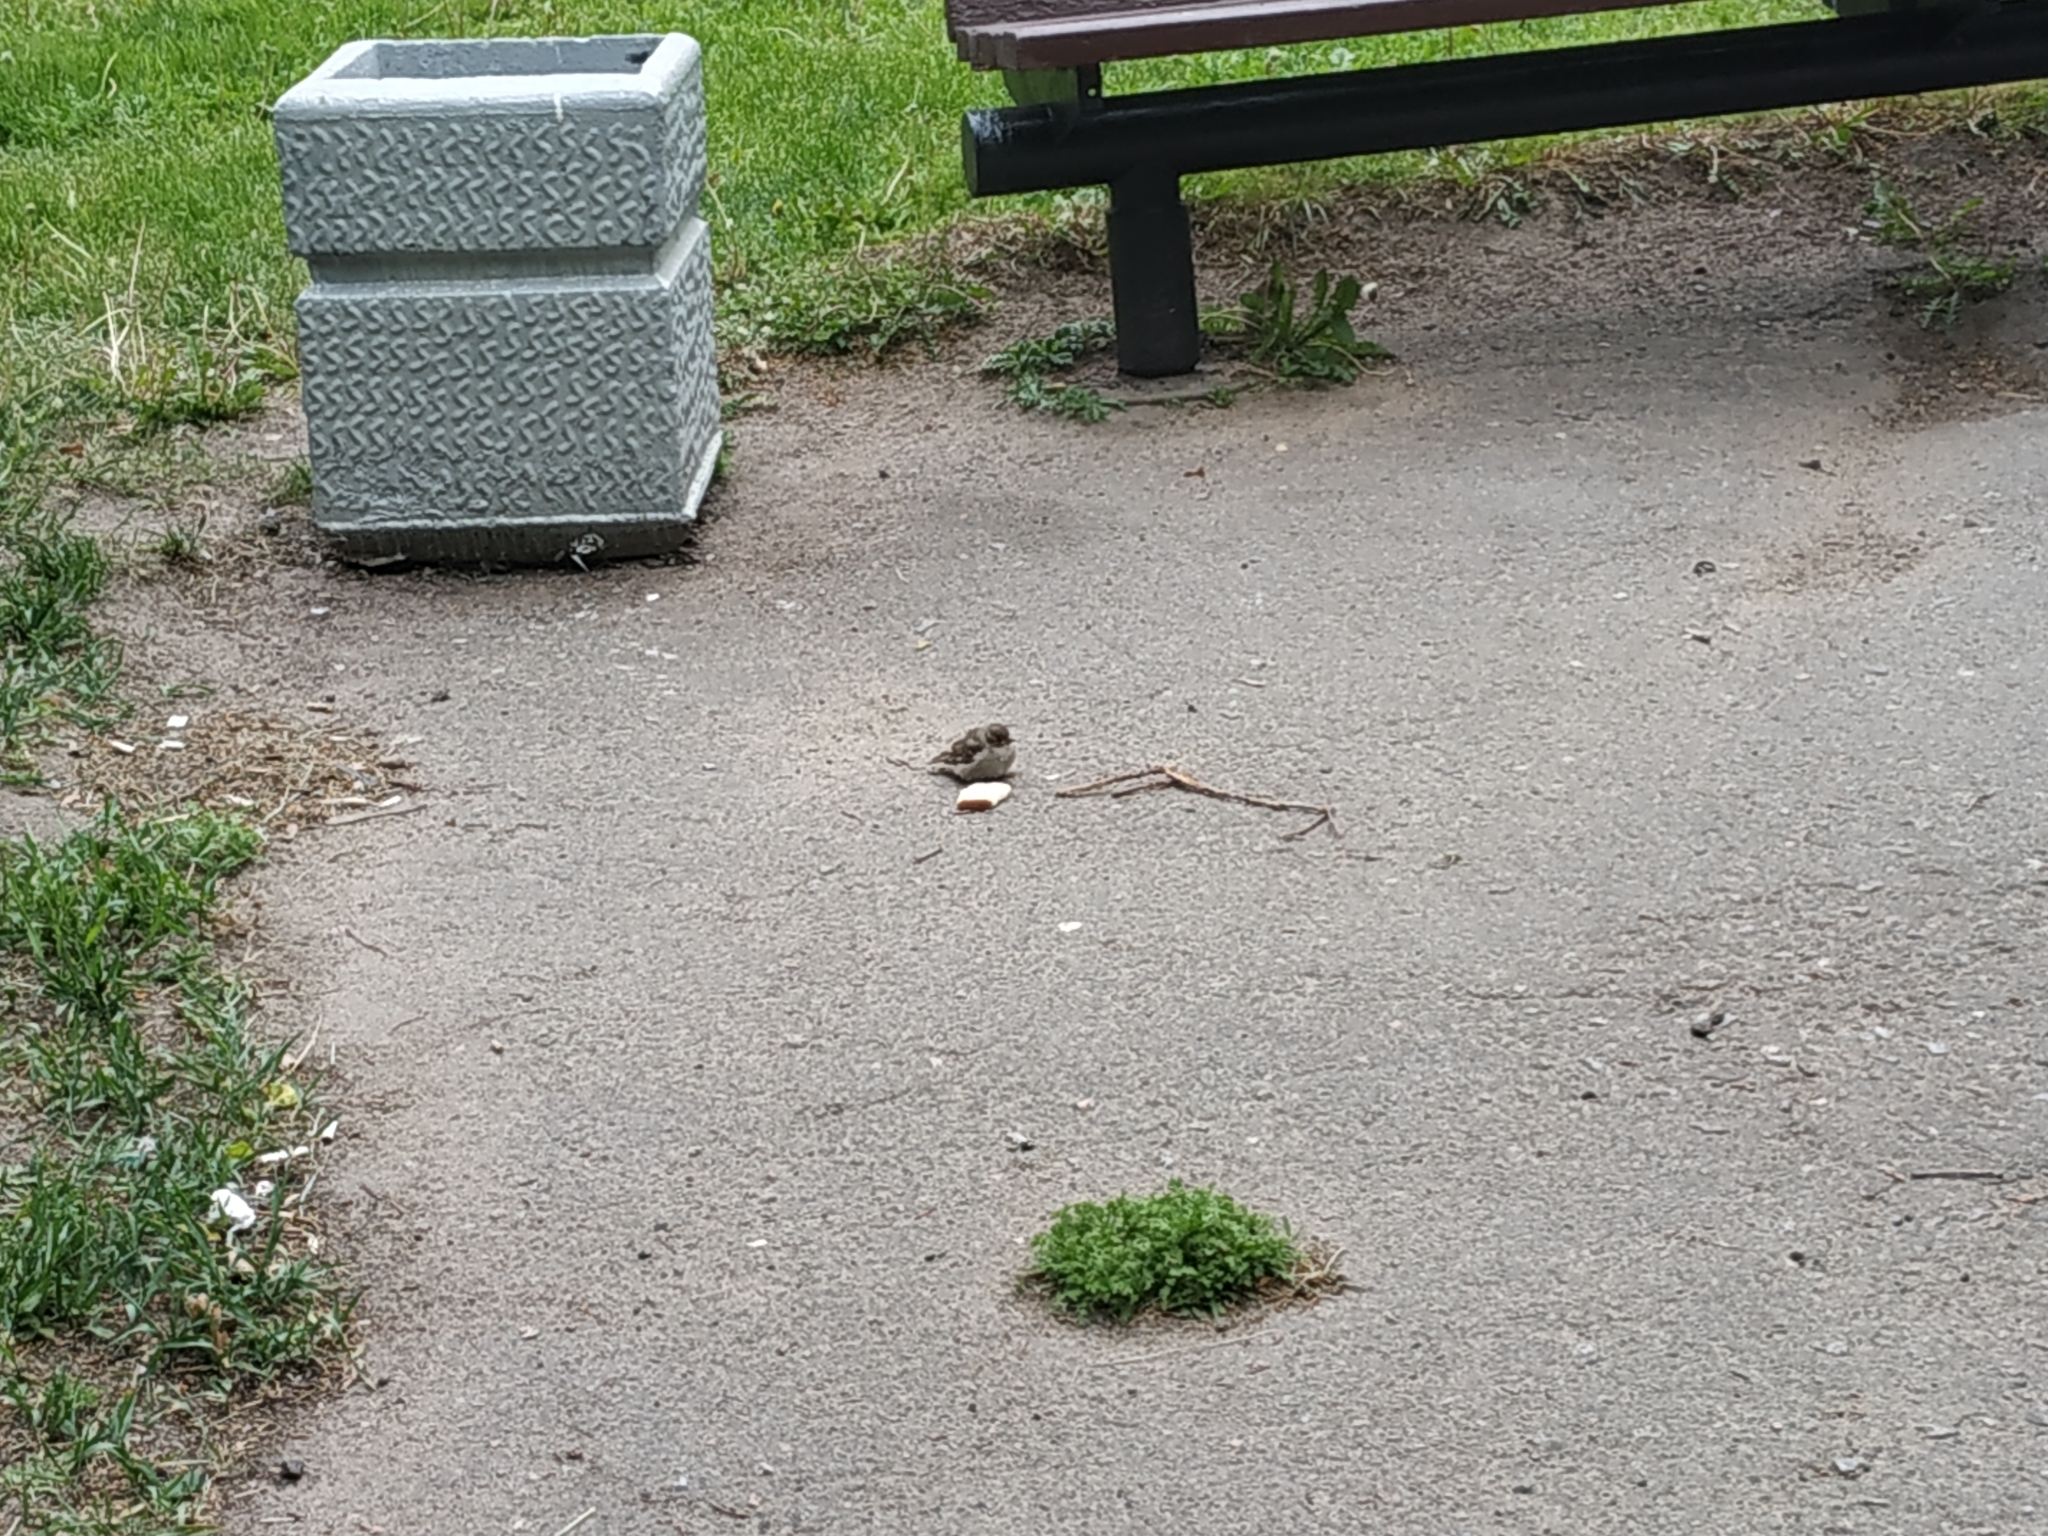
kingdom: Animalia
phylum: Chordata
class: Aves
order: Passeriformes
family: Passeridae
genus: Passer
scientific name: Passer domesticus
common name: House sparrow
